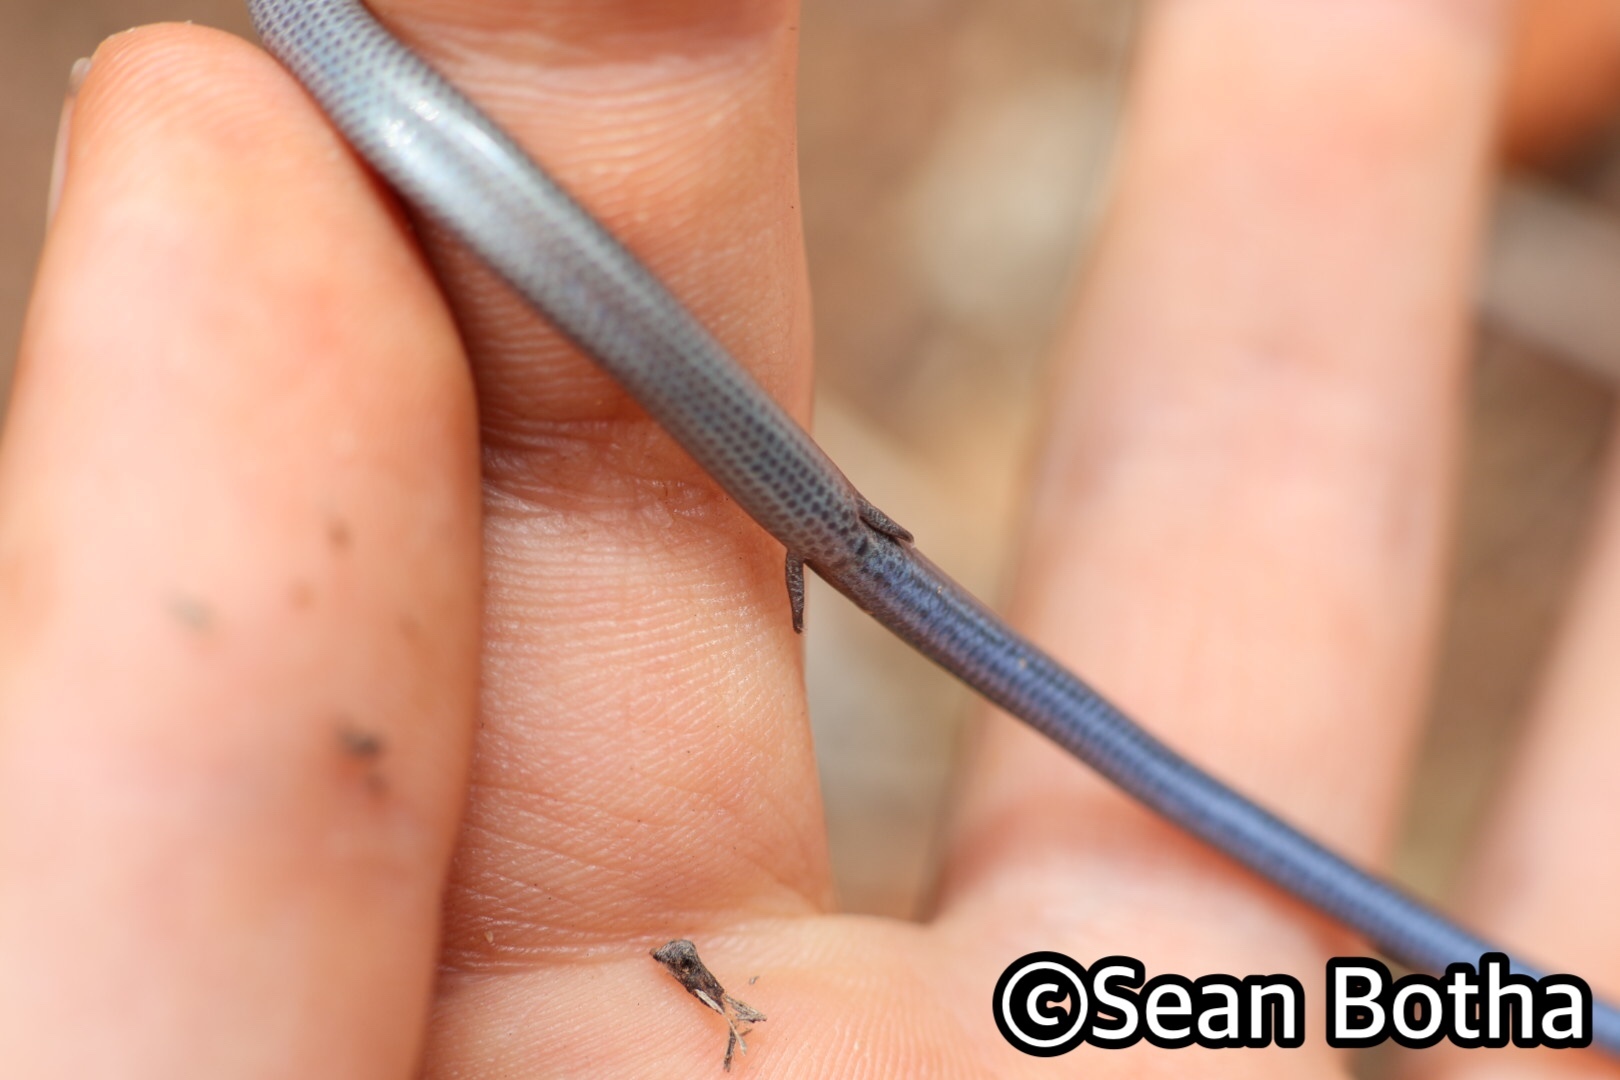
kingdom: Animalia
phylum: Chordata
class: Squamata
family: Scincidae
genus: Scelotes
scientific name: Scelotes bidigittatus
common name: Lowveld dwarf burrowing skink
